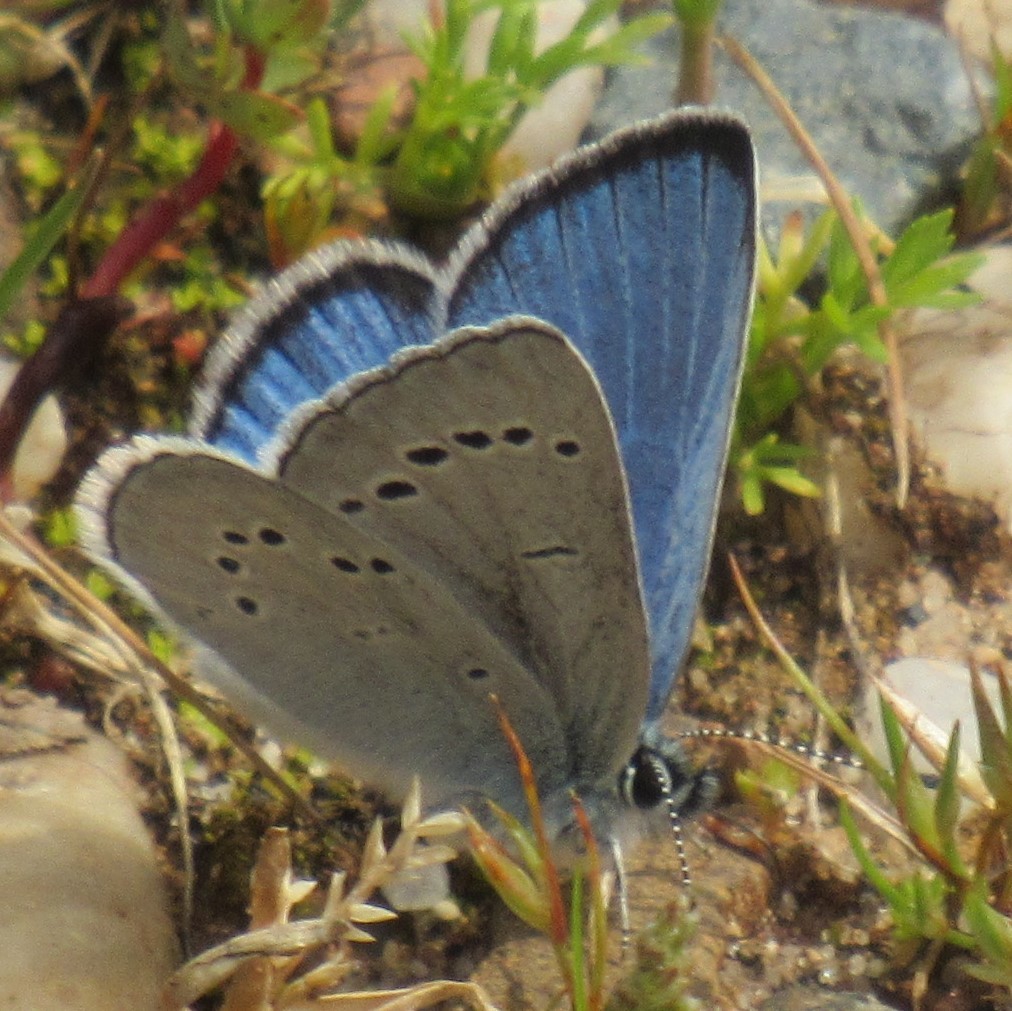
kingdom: Animalia
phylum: Arthropoda
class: Insecta
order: Lepidoptera
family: Lycaenidae
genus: Glaucopsyche
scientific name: Glaucopsyche lygdamus
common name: Silvery blue
